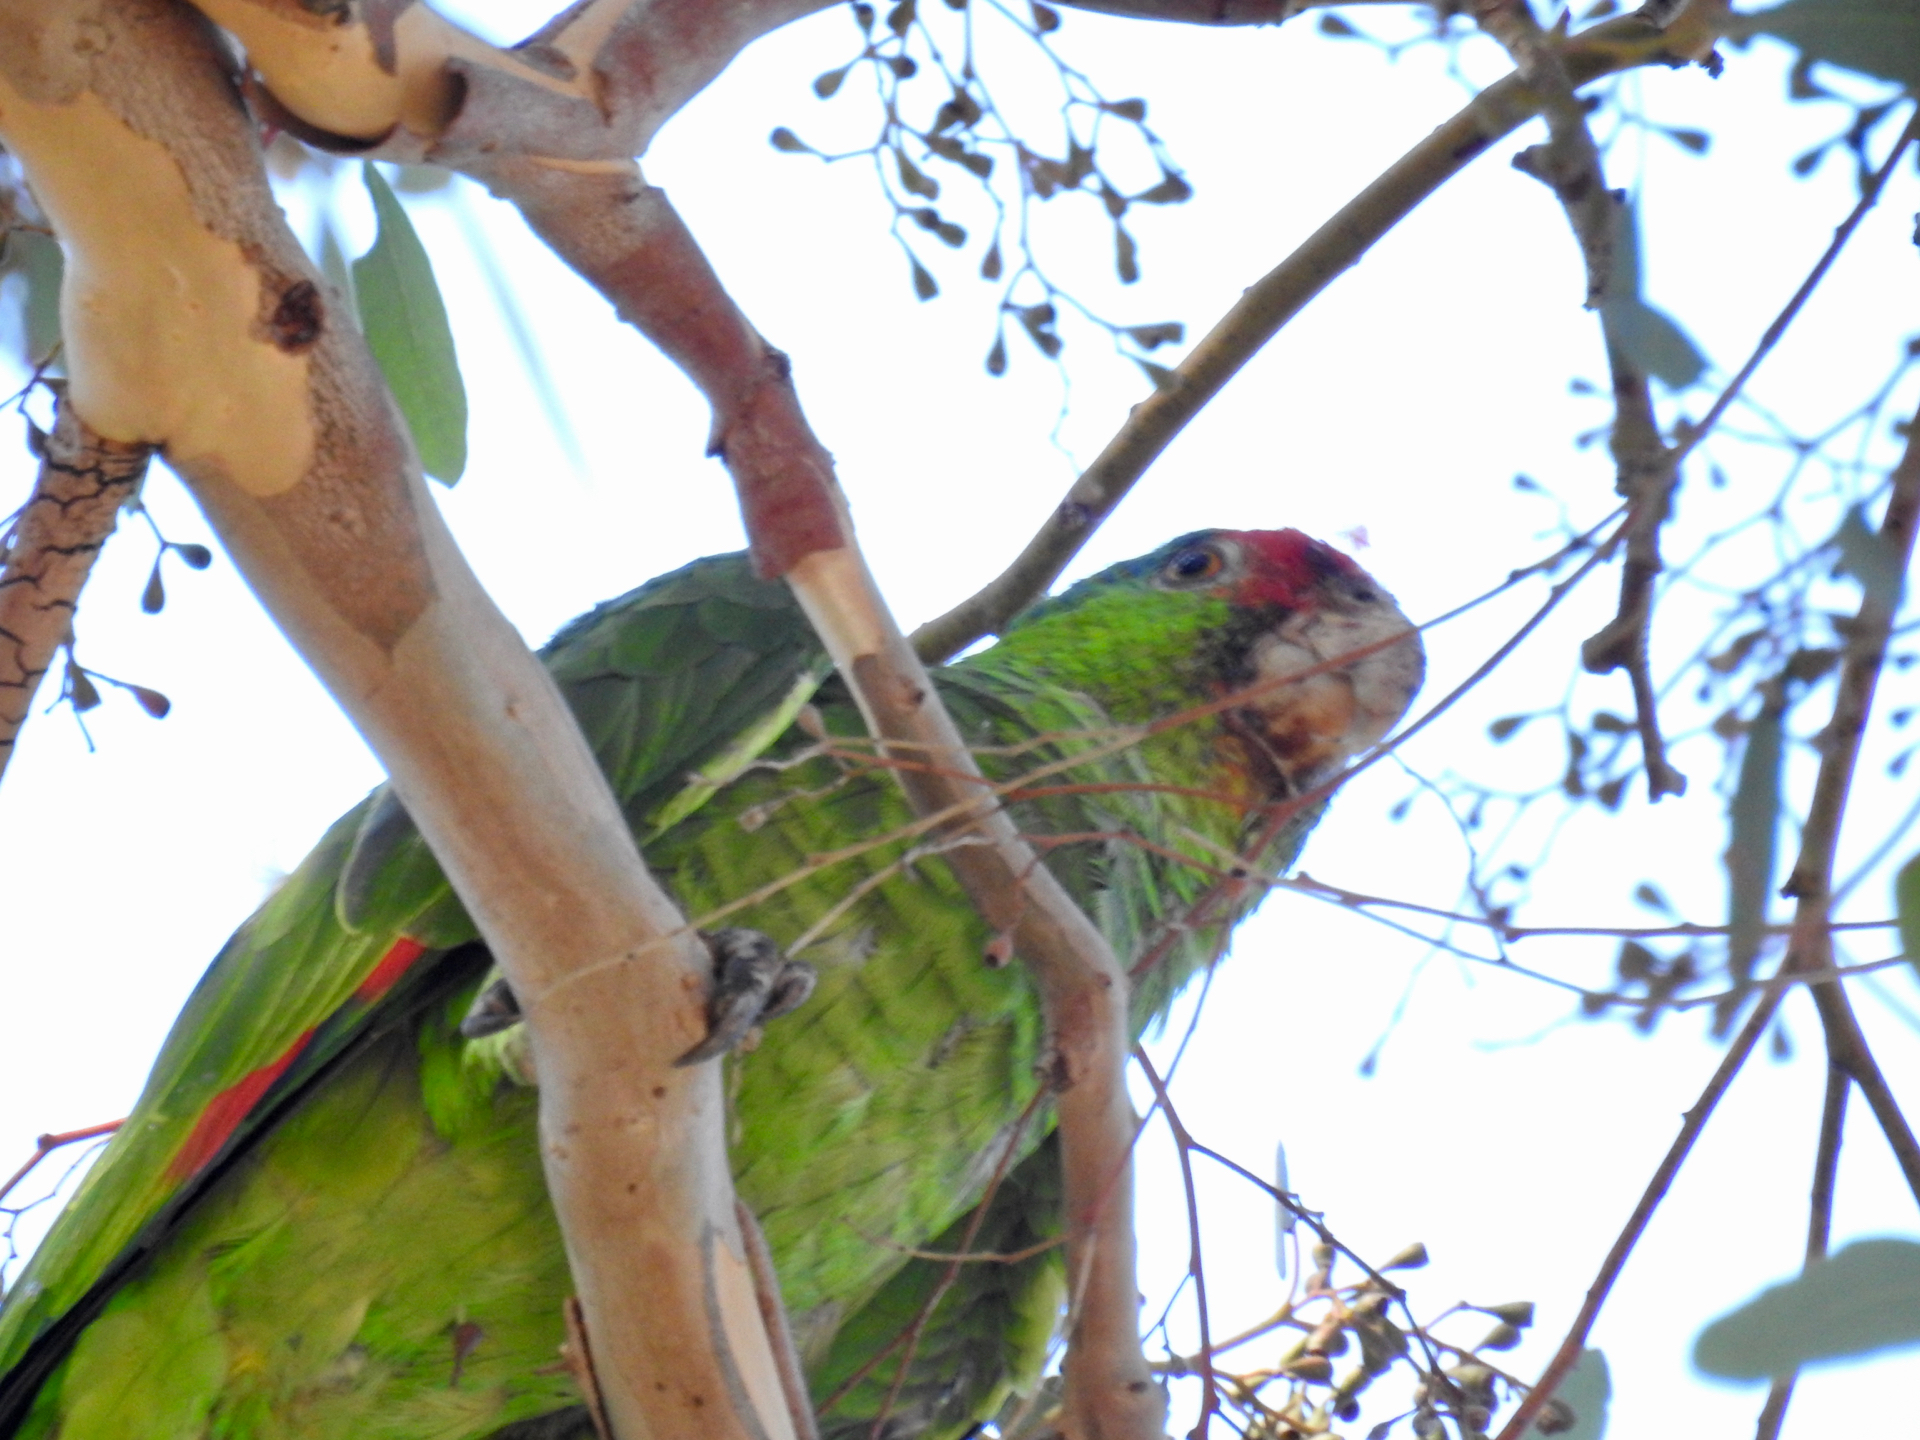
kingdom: Animalia
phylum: Chordata
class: Aves
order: Psittaciformes
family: Psittacidae
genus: Amazona
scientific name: Amazona viridigenalis
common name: Red-crowned amazon
